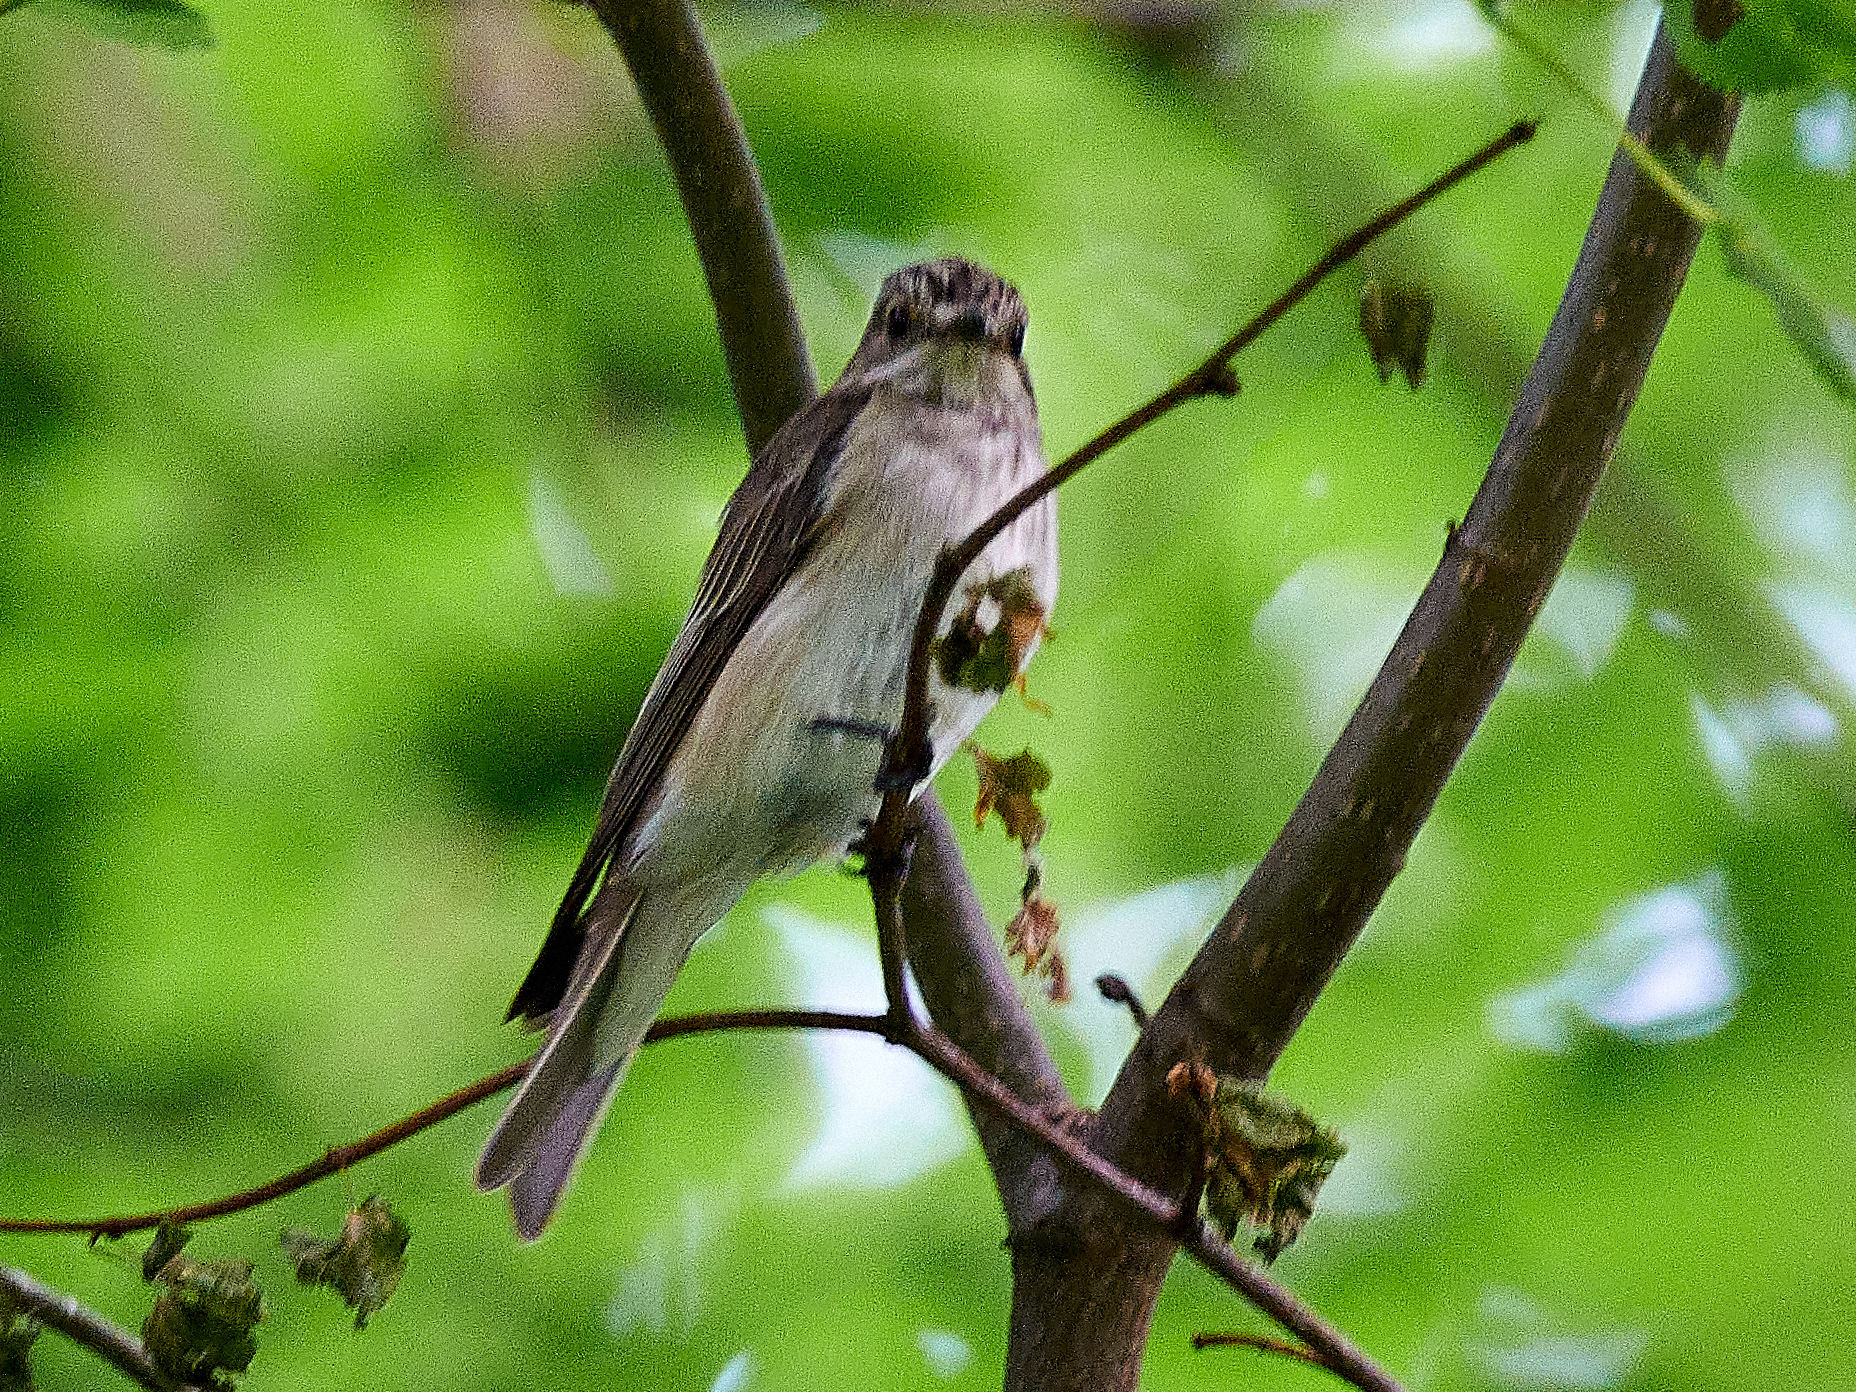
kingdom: Animalia
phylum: Chordata
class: Aves
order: Passeriformes
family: Muscicapidae
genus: Muscicapa
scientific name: Muscicapa striata
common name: Spotted flycatcher
